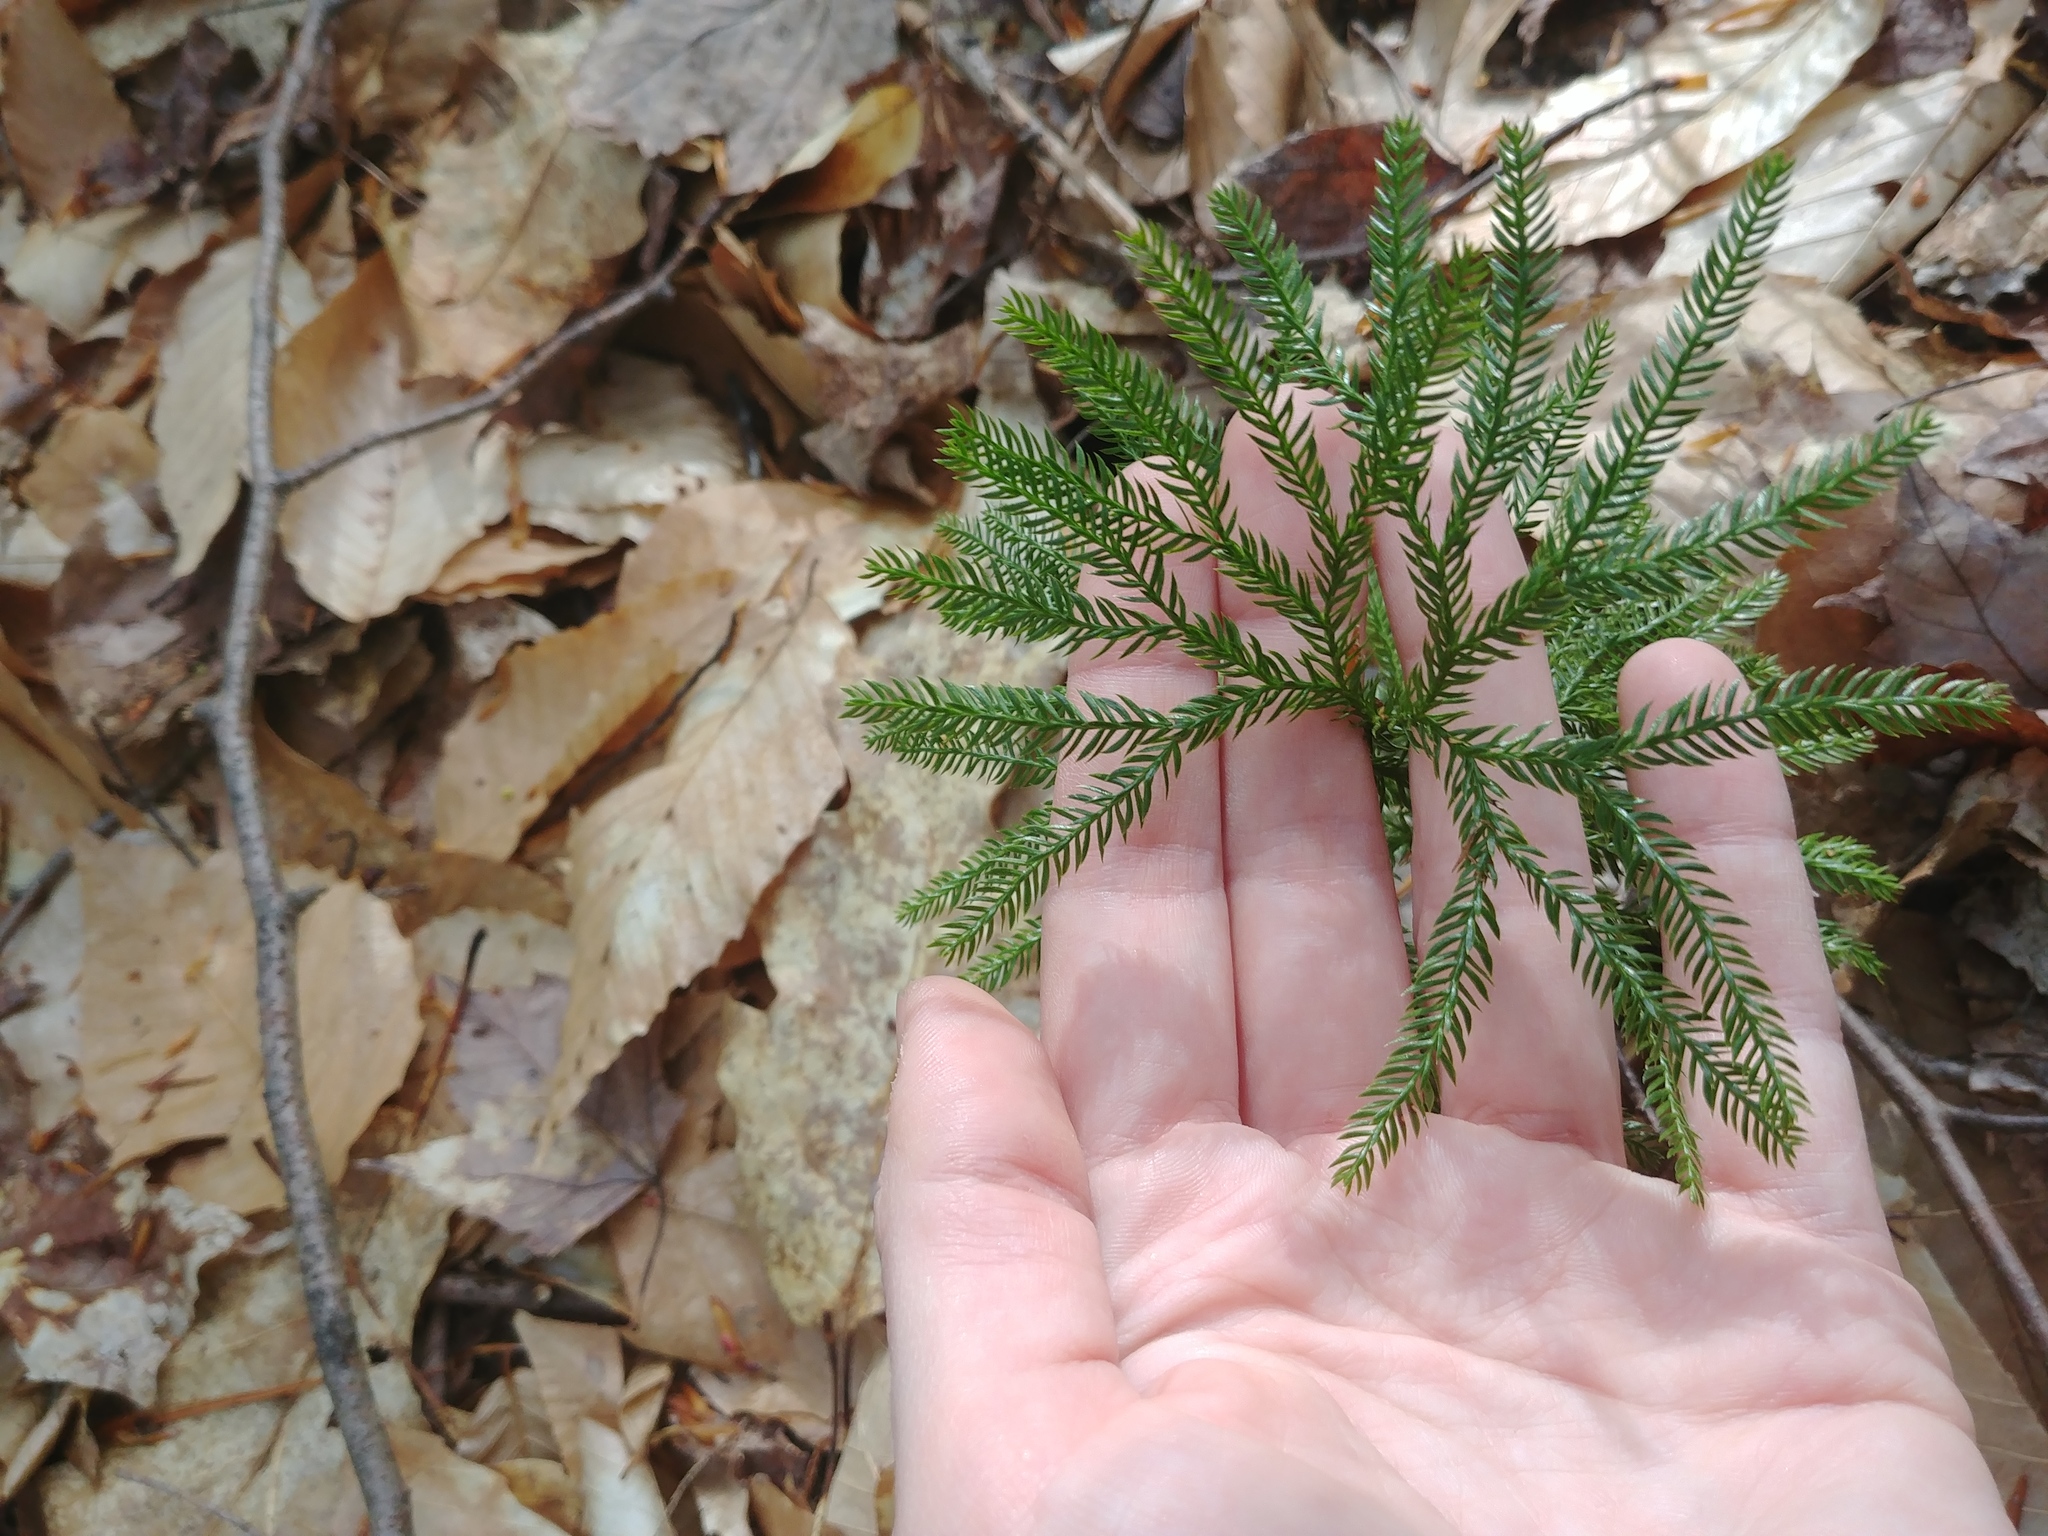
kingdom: Plantae
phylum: Tracheophyta
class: Lycopodiopsida
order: Lycopodiales
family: Lycopodiaceae
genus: Dendrolycopodium
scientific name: Dendrolycopodium obscurum
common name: Common ground-pine
